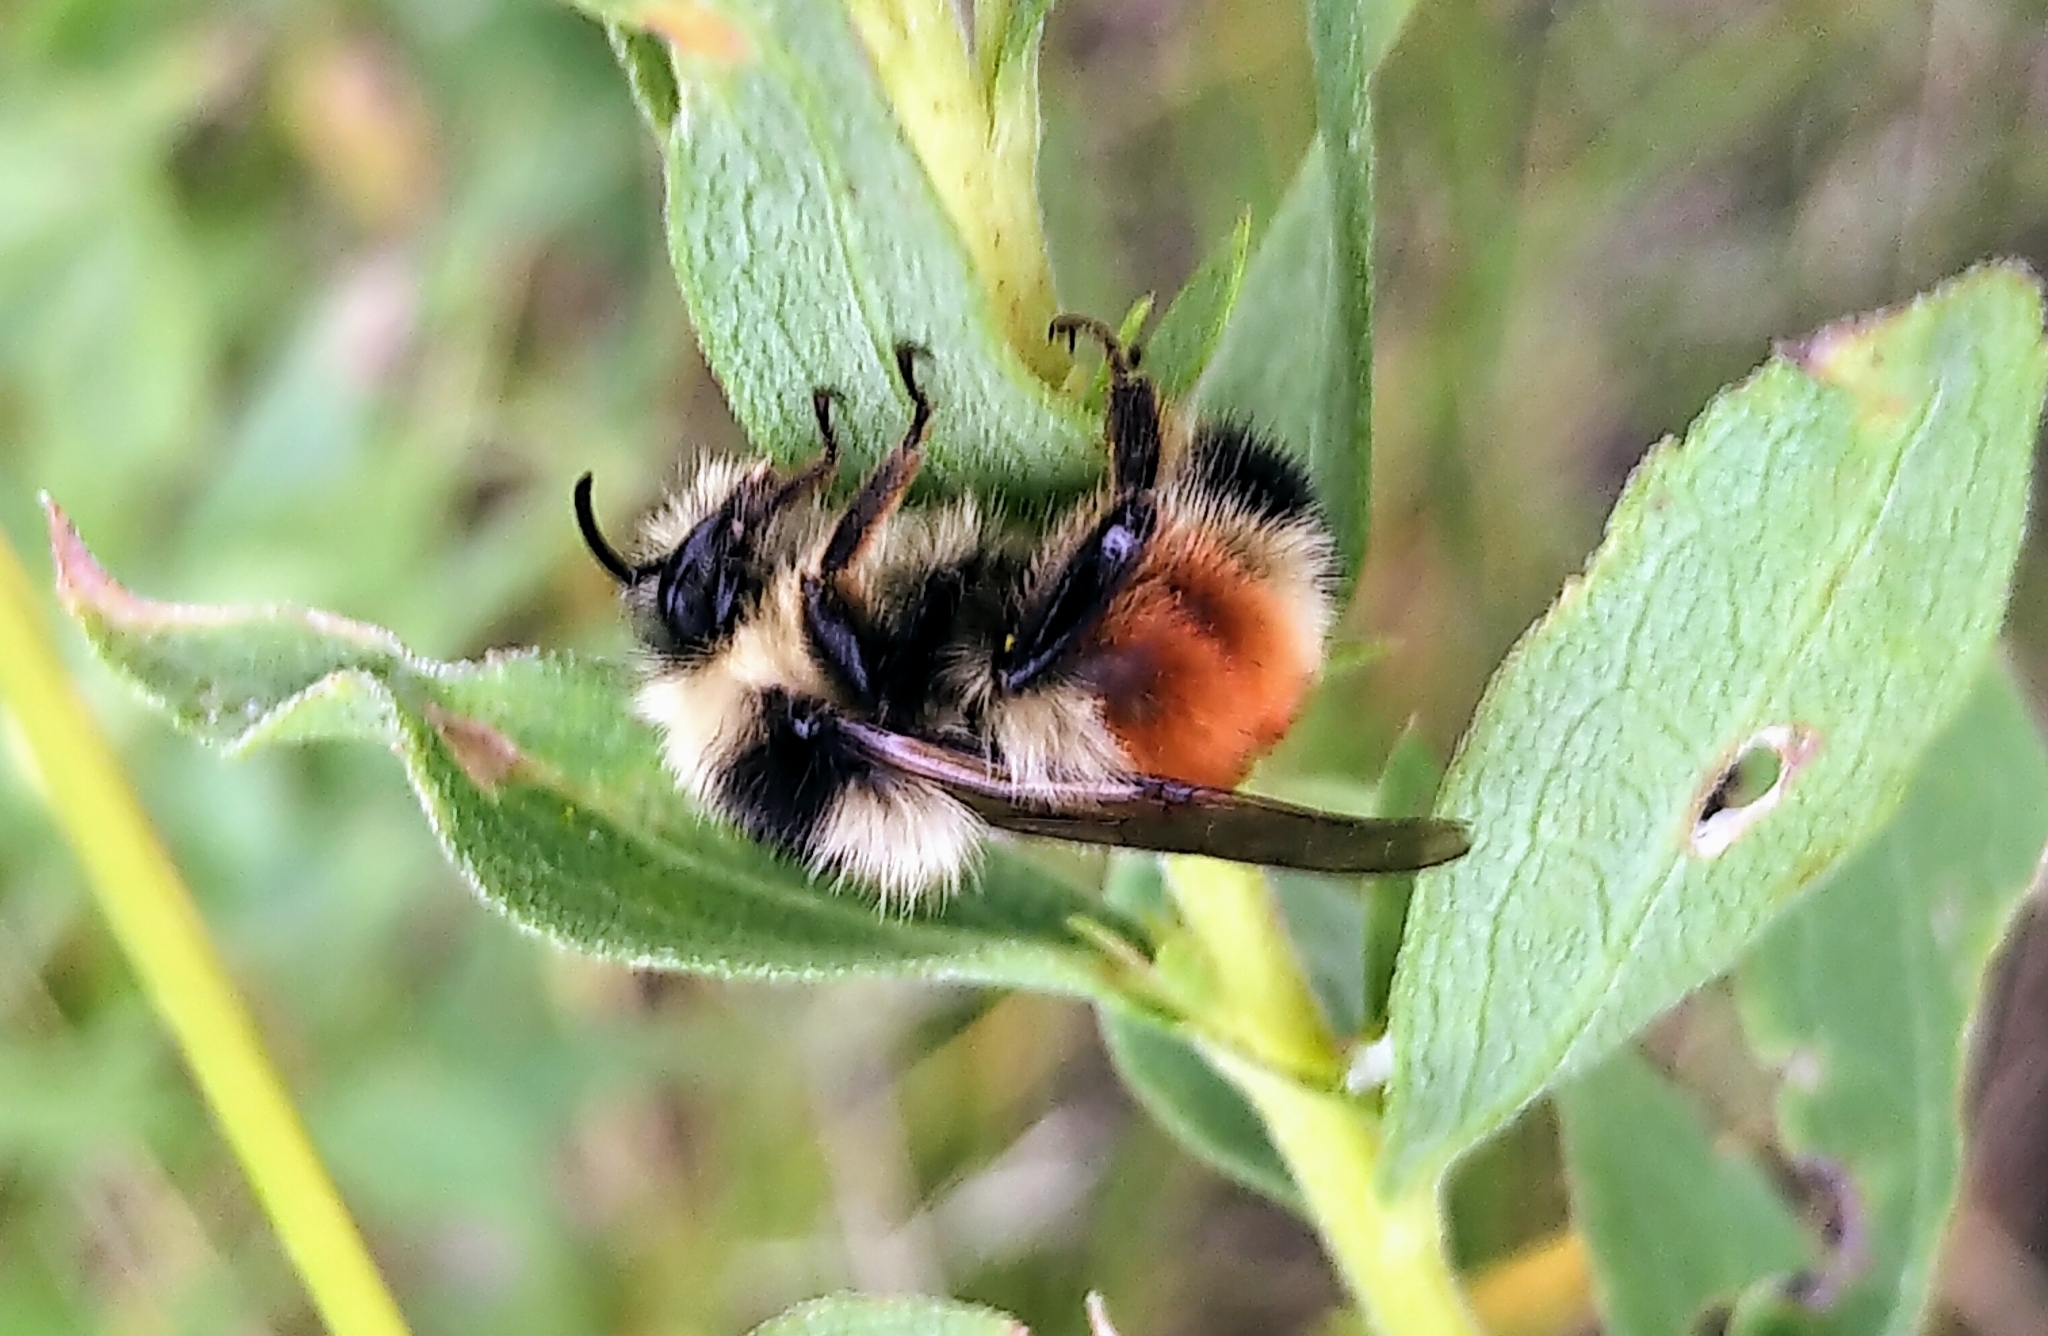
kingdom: Animalia
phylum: Arthropoda
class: Insecta
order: Hymenoptera
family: Apidae
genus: Bombus
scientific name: Bombus ternarius
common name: Tri-colored bumble bee
